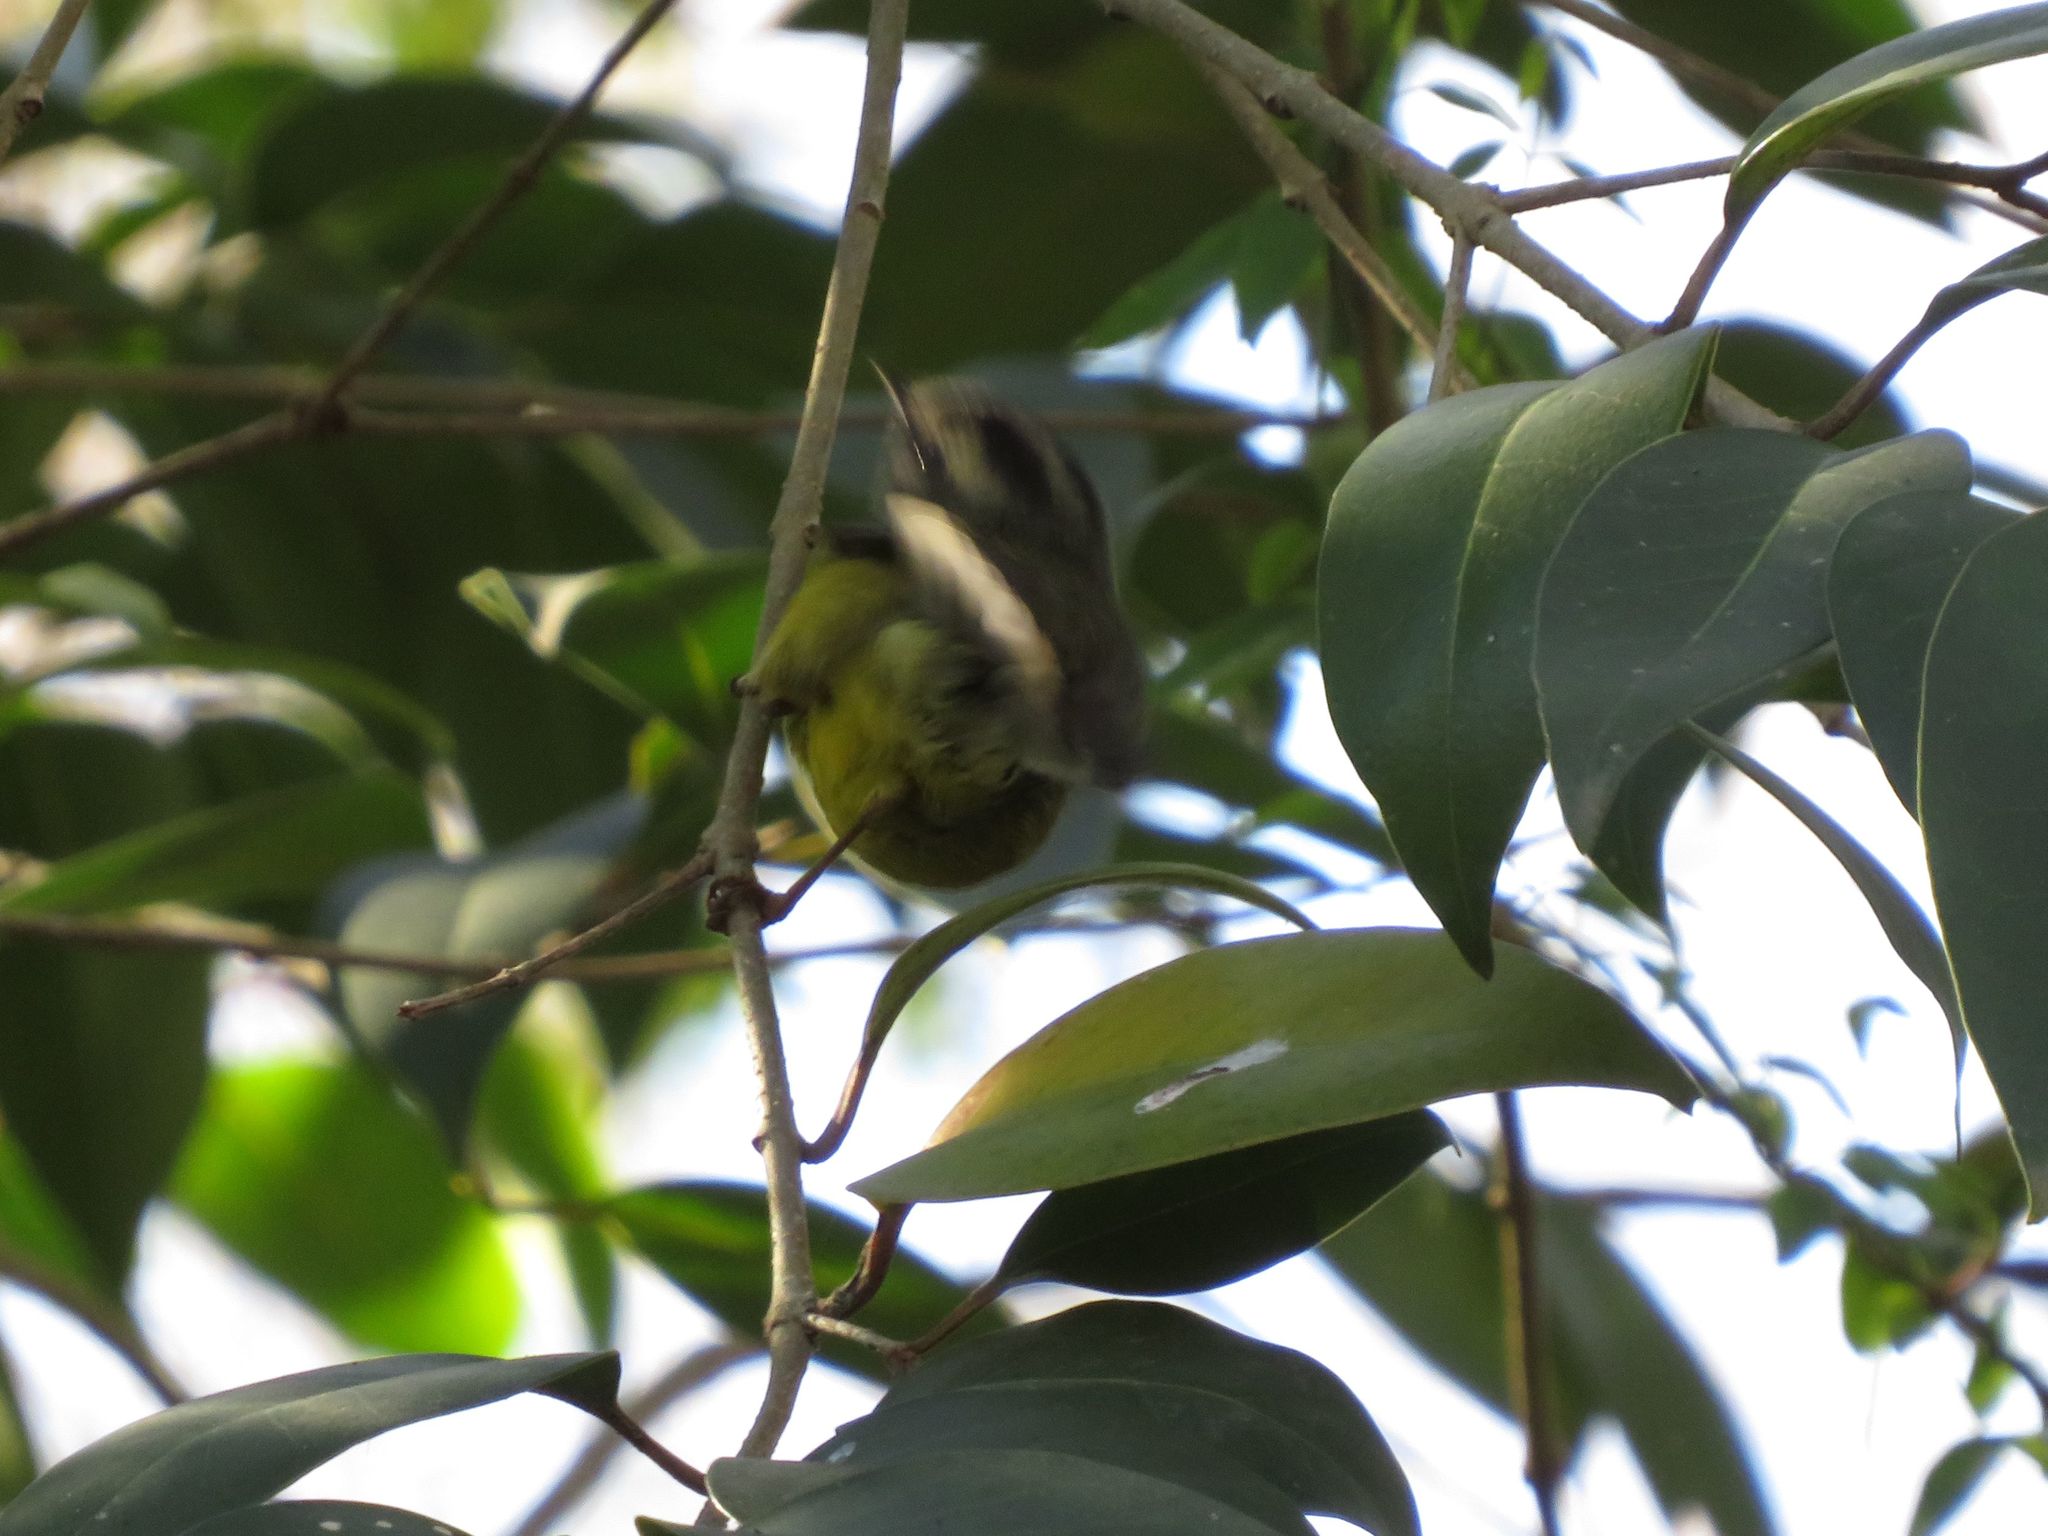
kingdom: Animalia
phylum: Chordata
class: Aves
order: Passeriformes
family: Parulidae
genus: Basileuterus
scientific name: Basileuterus culicivorus
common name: Golden-crowned warbler
